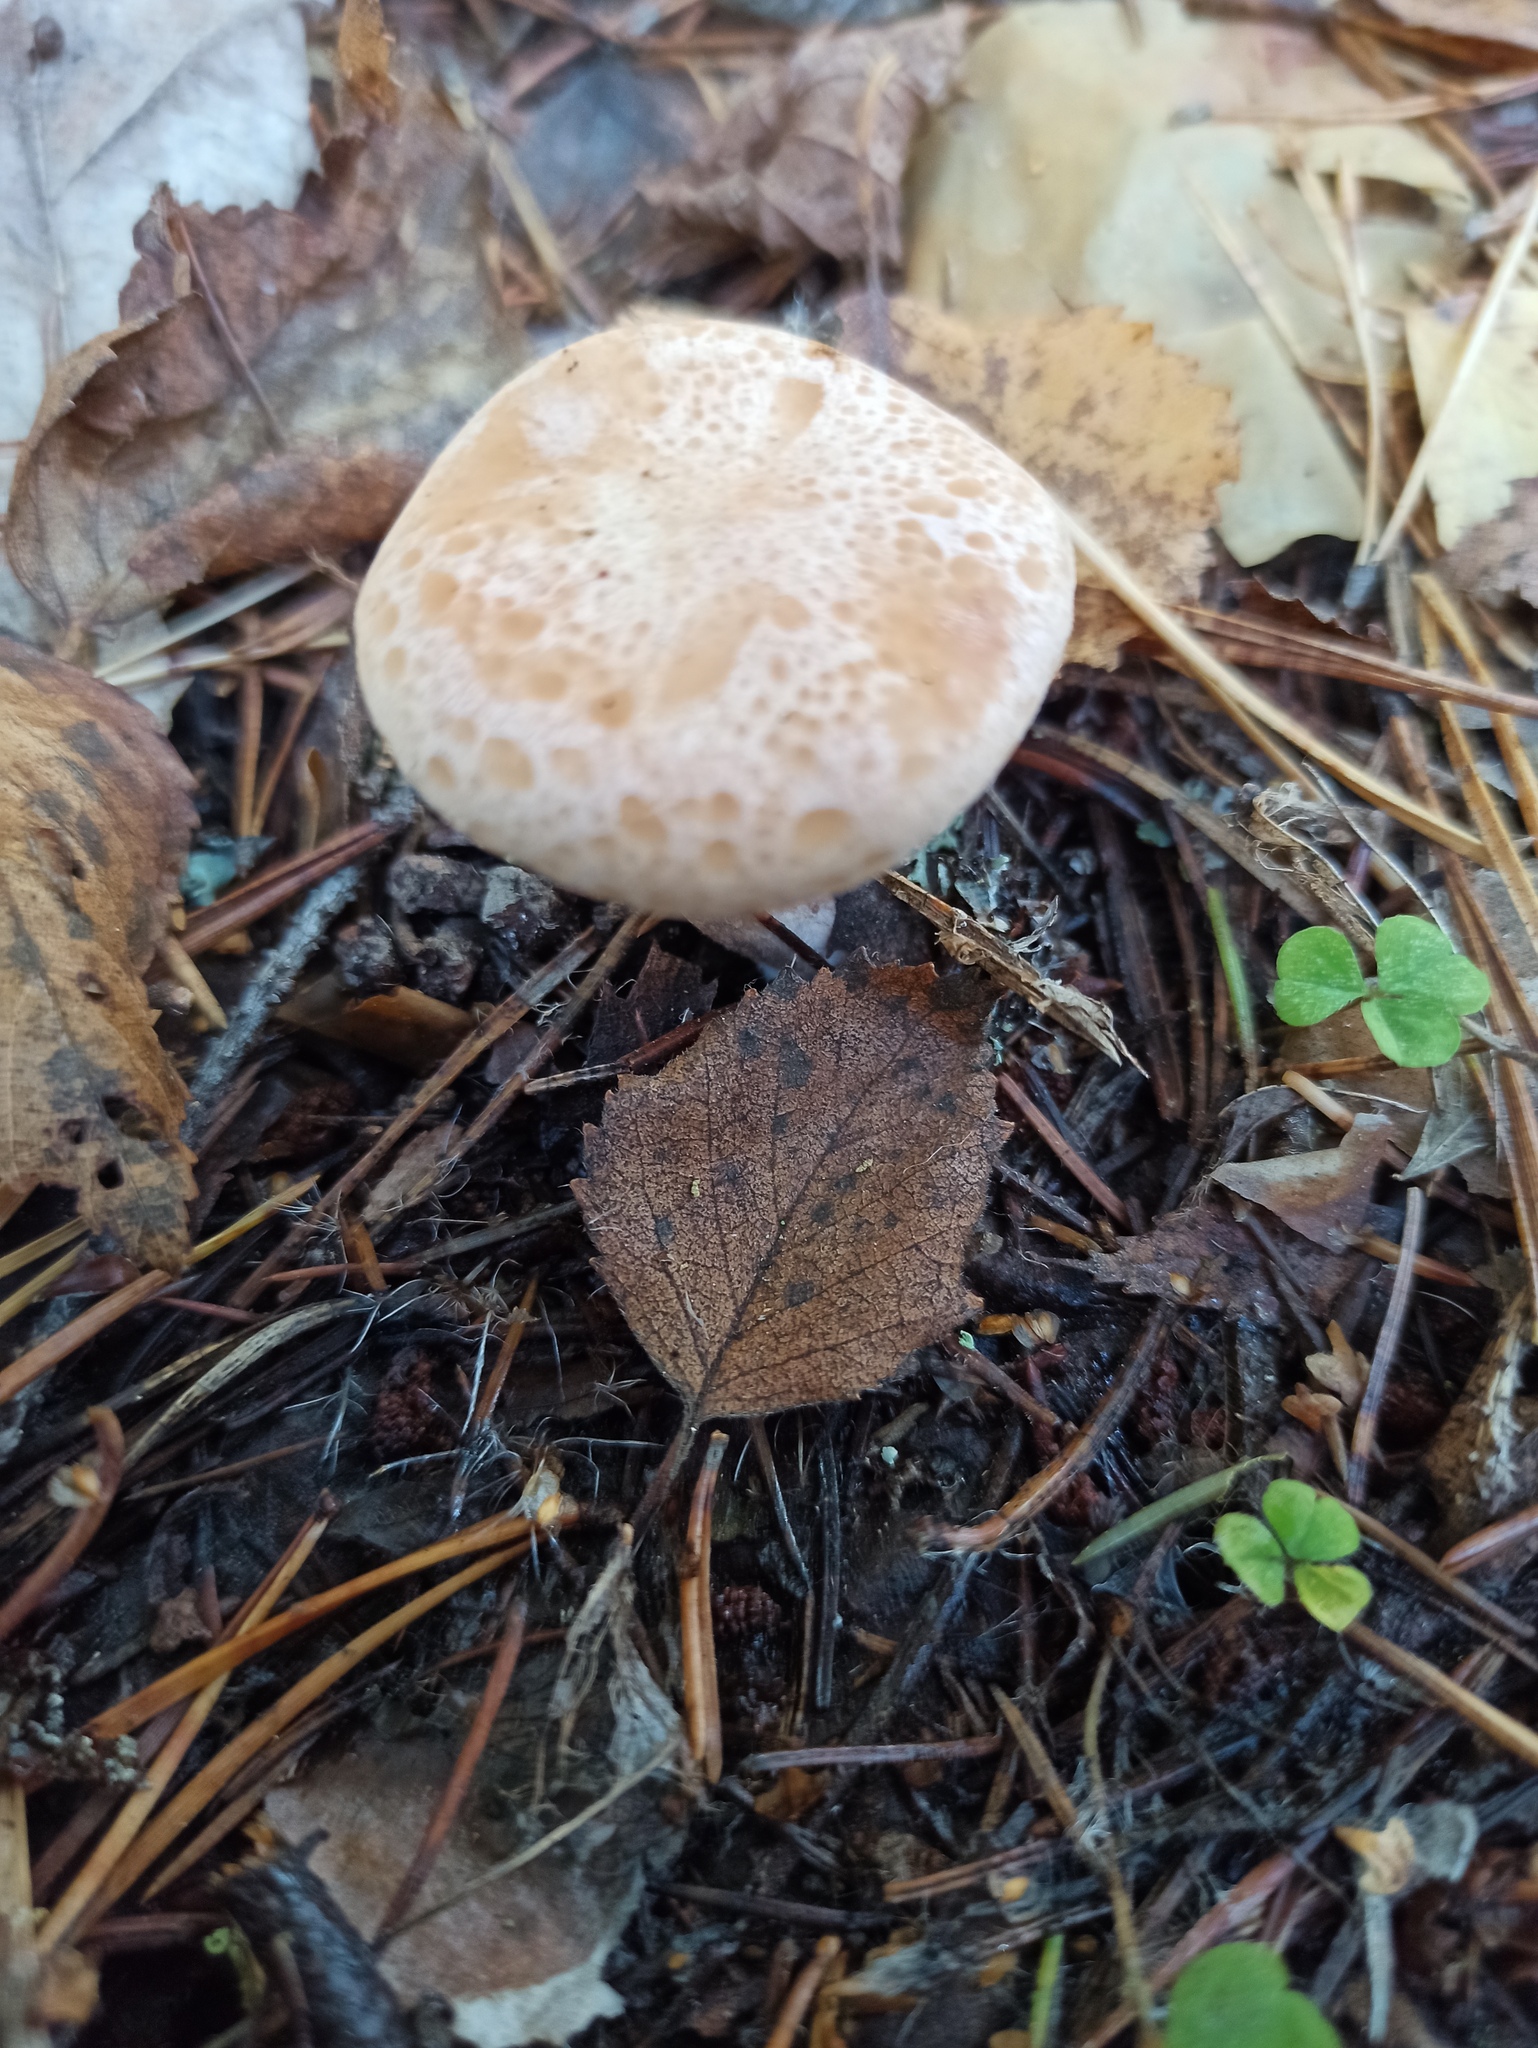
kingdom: Fungi
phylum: Basidiomycota
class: Agaricomycetes
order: Agaricales
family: Tricholomataceae
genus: Paralepista
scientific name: Paralepista gilva
